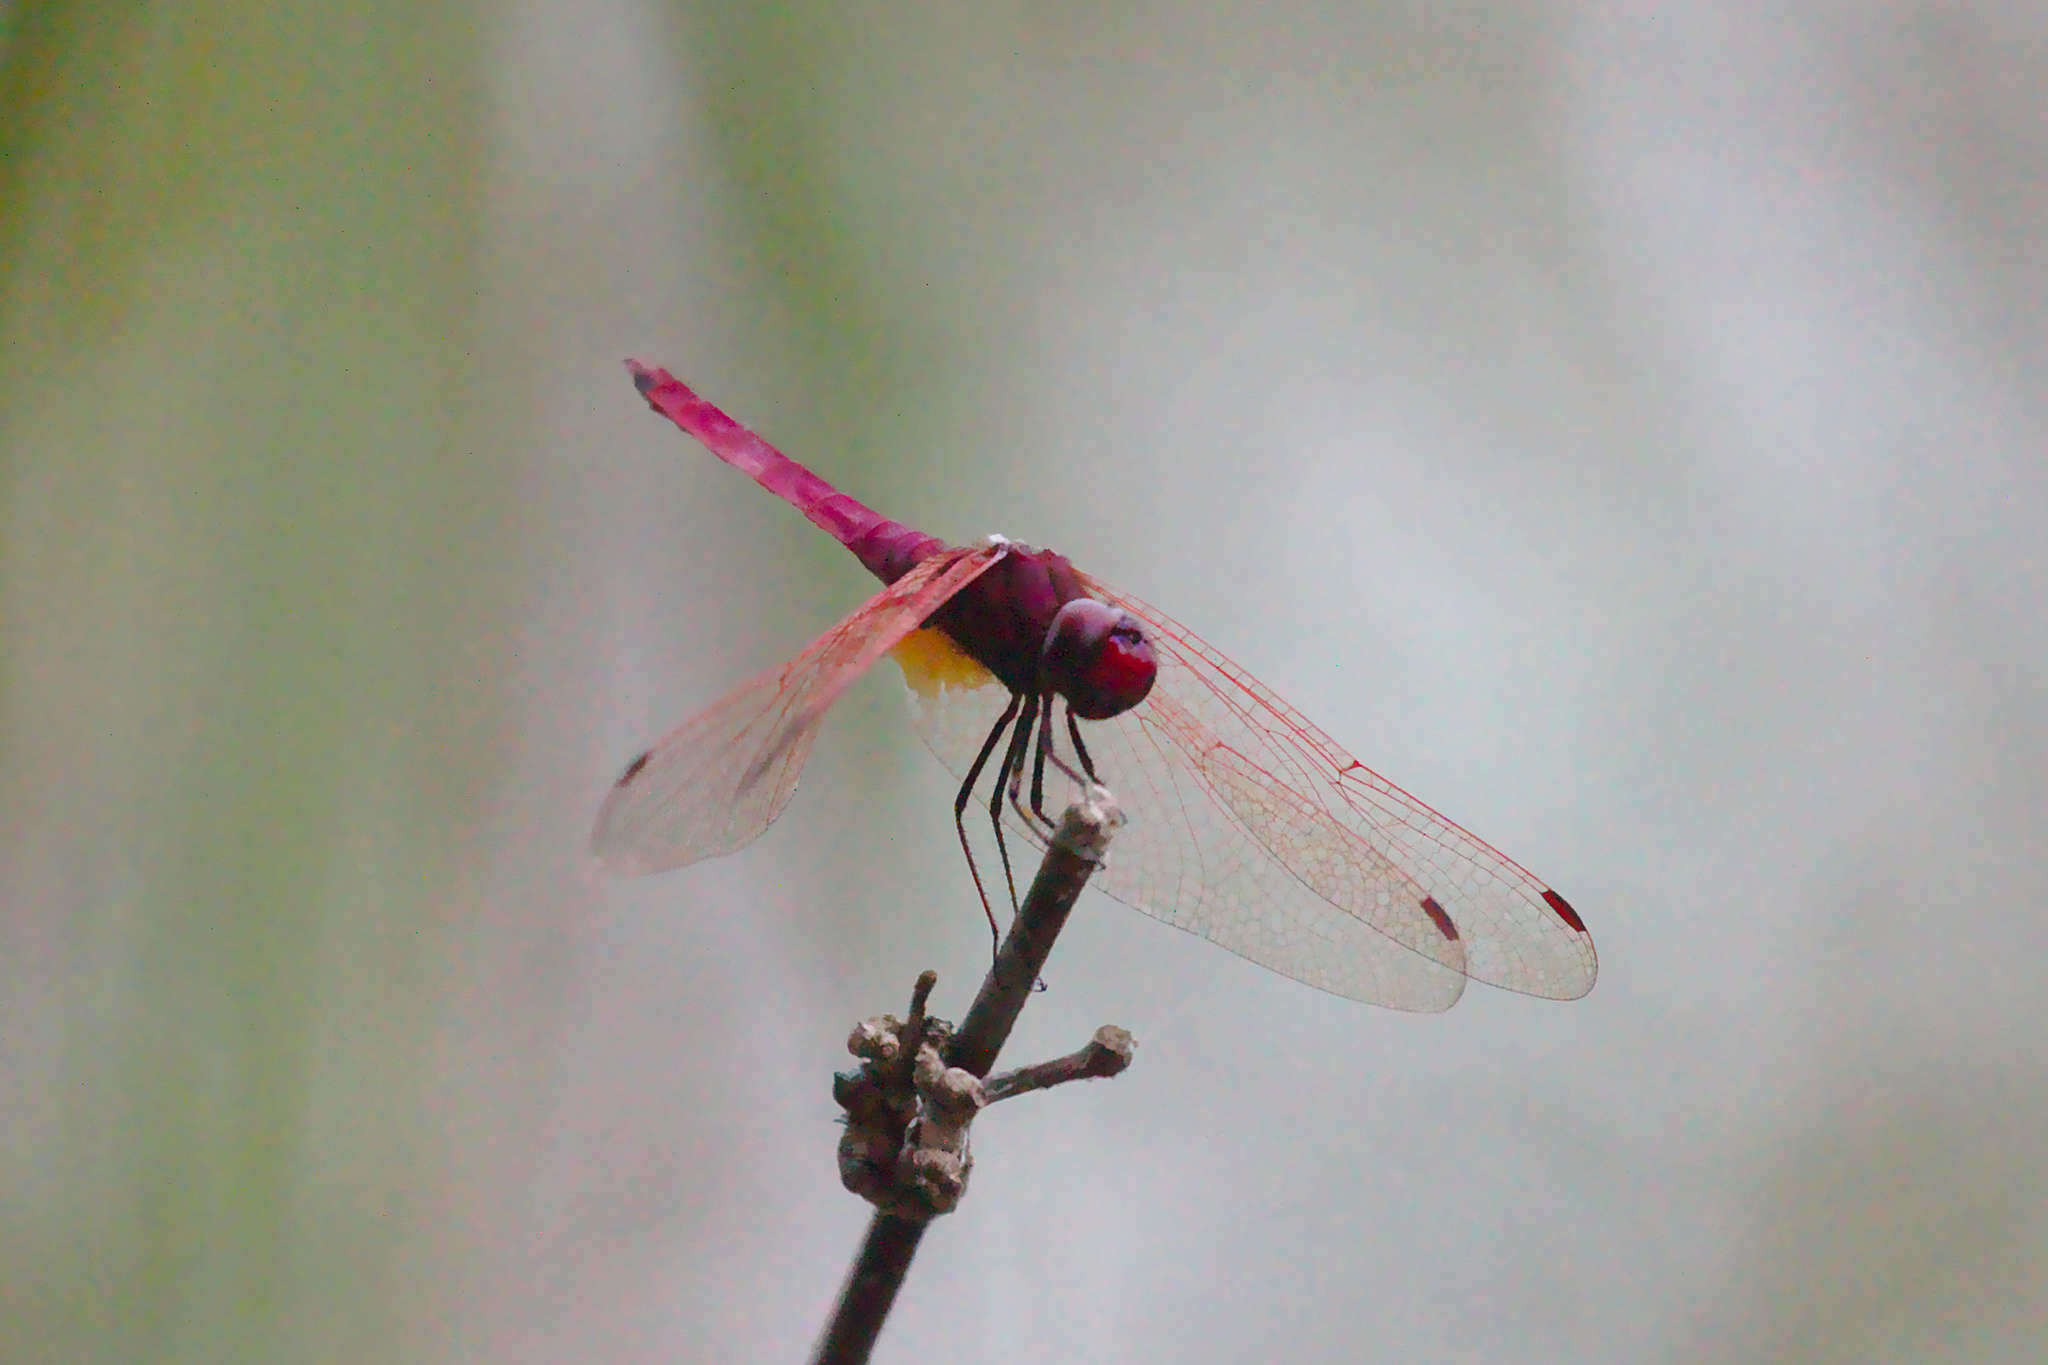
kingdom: Animalia
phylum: Arthropoda
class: Insecta
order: Odonata
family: Libellulidae
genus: Trithemis
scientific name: Trithemis aurora
